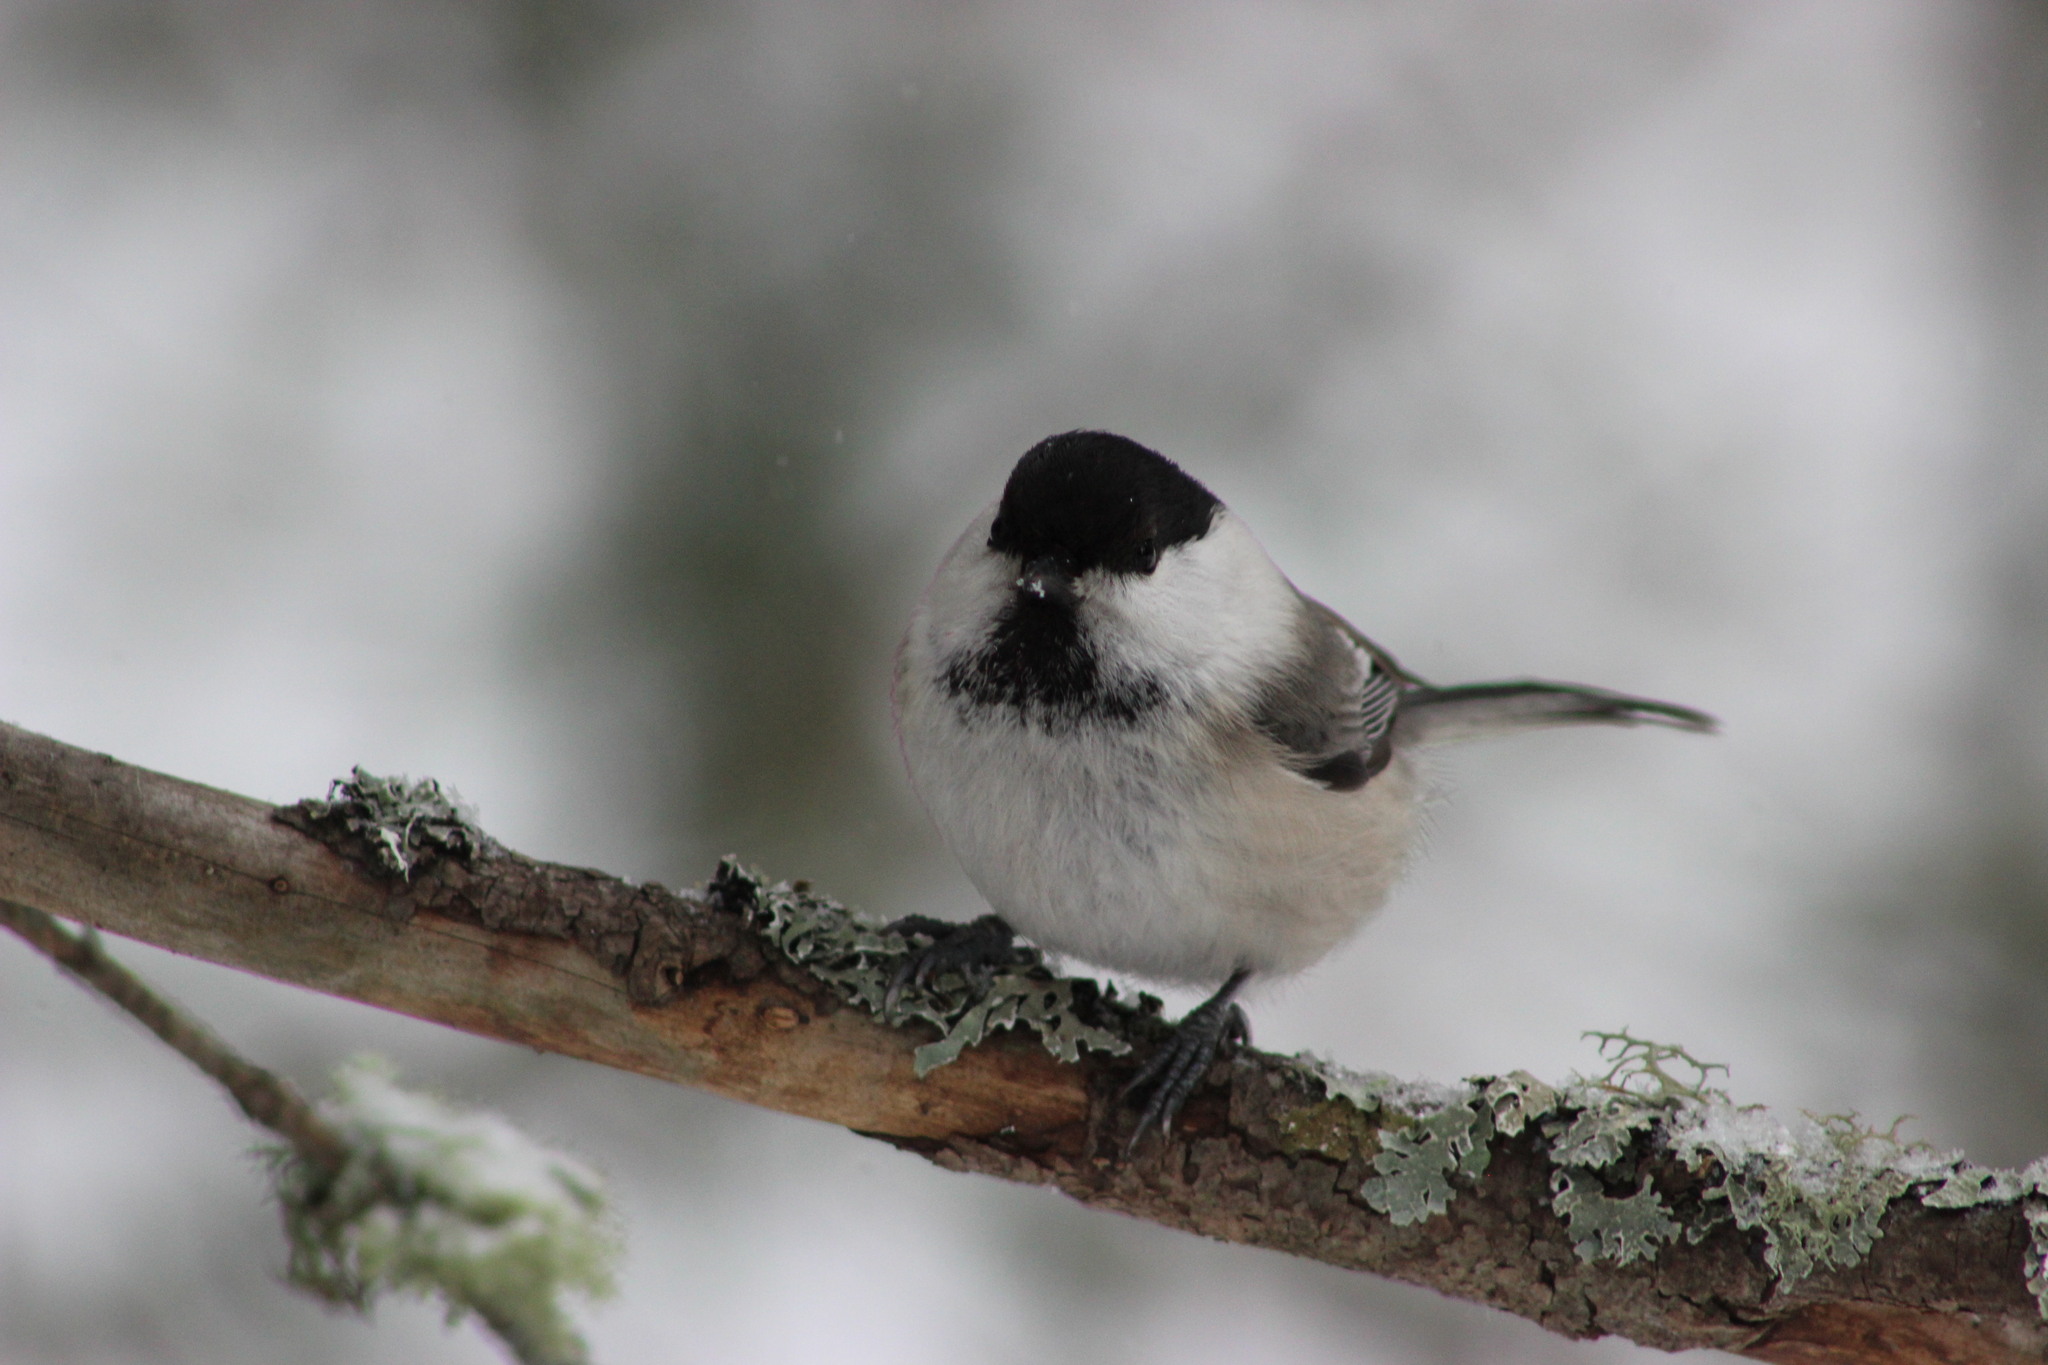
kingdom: Animalia
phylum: Chordata
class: Aves
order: Passeriformes
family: Paridae
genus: Poecile
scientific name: Poecile montanus
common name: Willow tit
